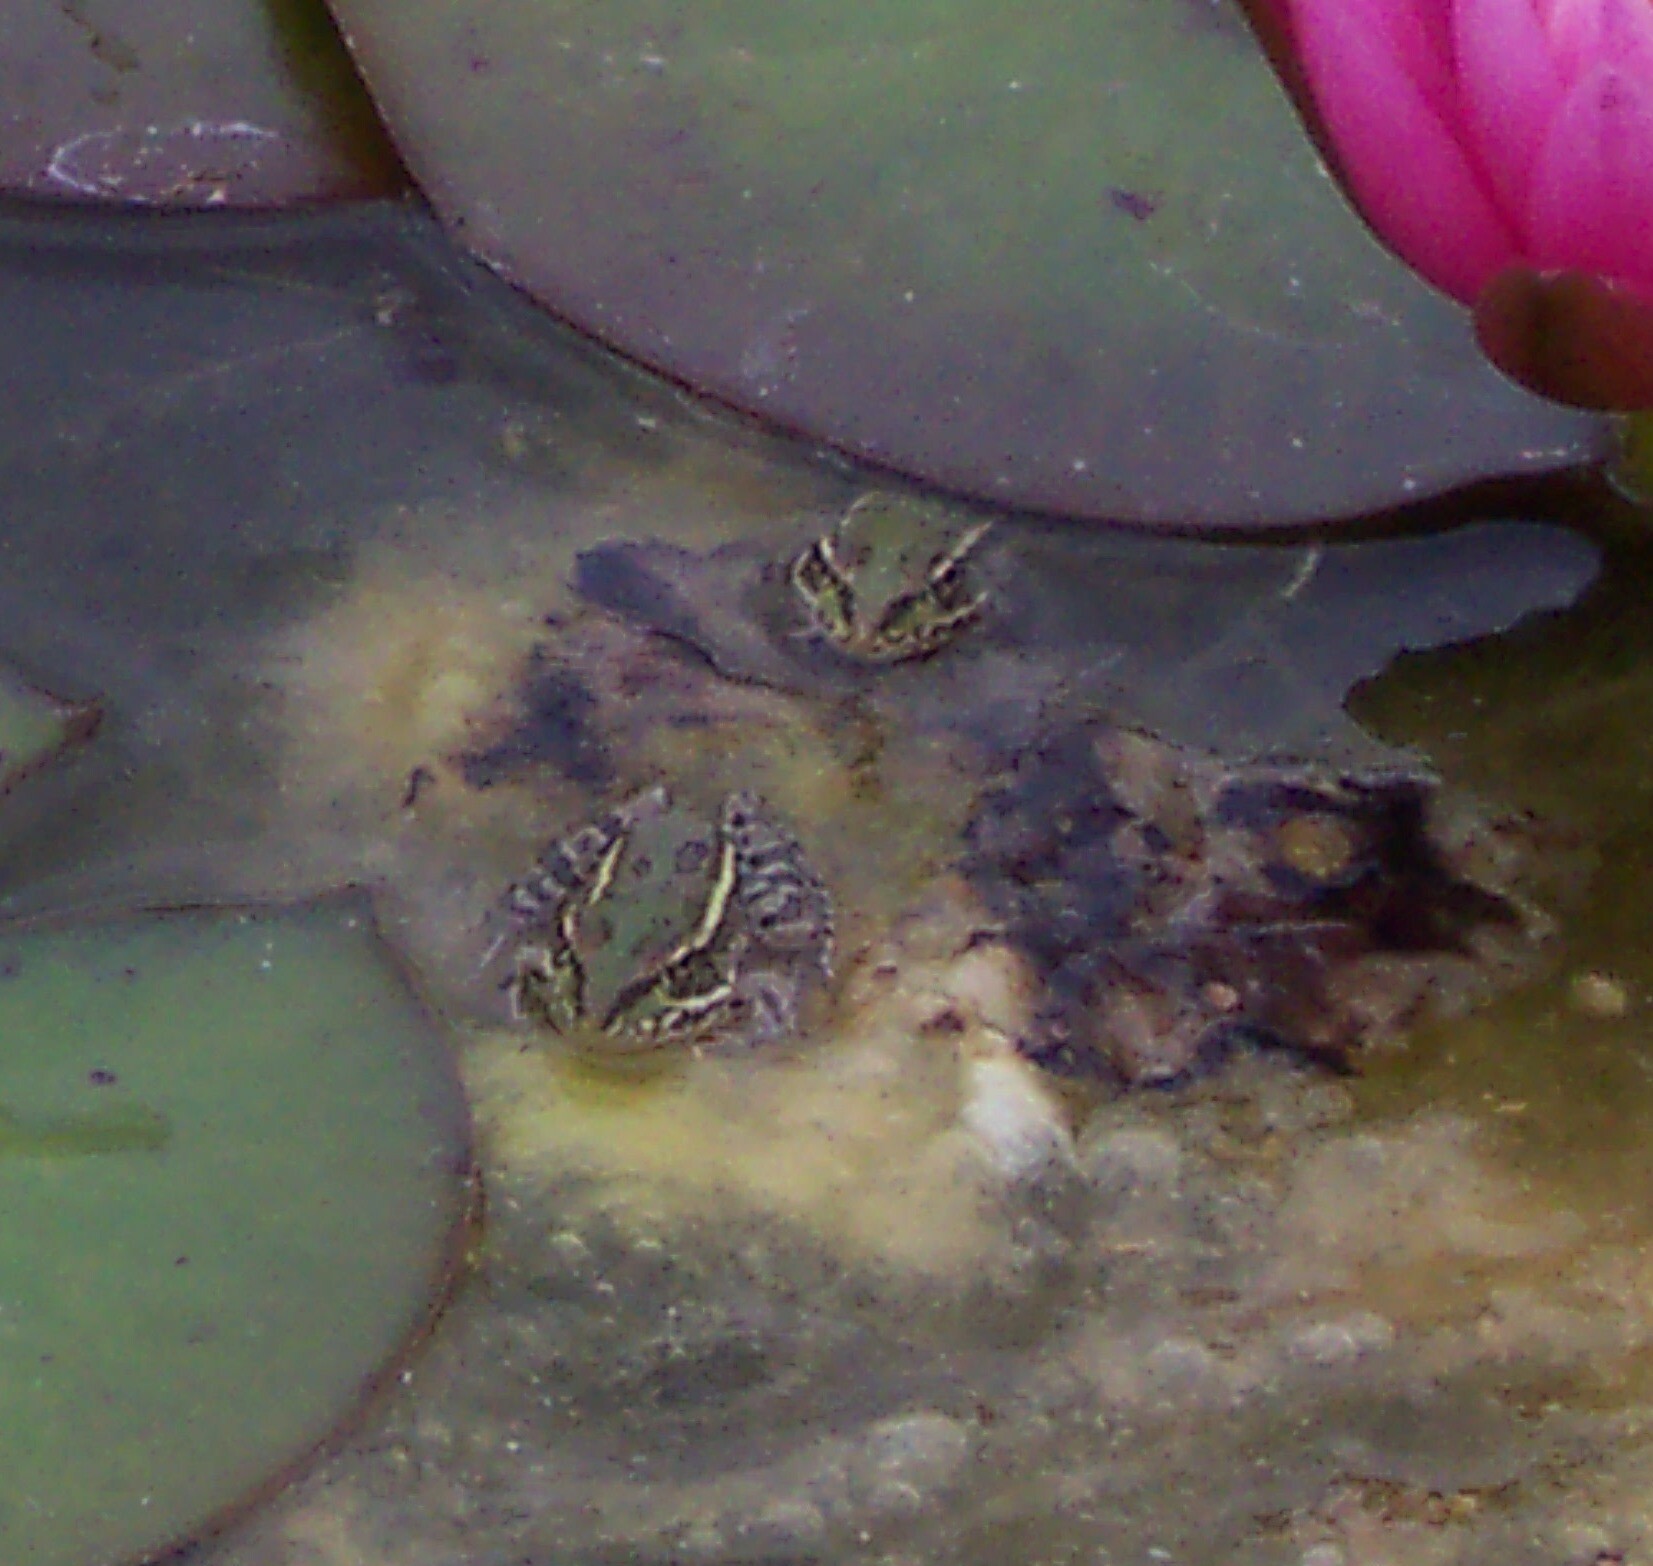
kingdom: Animalia
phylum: Chordata
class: Amphibia
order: Anura
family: Ranidae
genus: Lithobates
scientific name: Lithobates berlandieri
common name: Rio grande leopard frog
